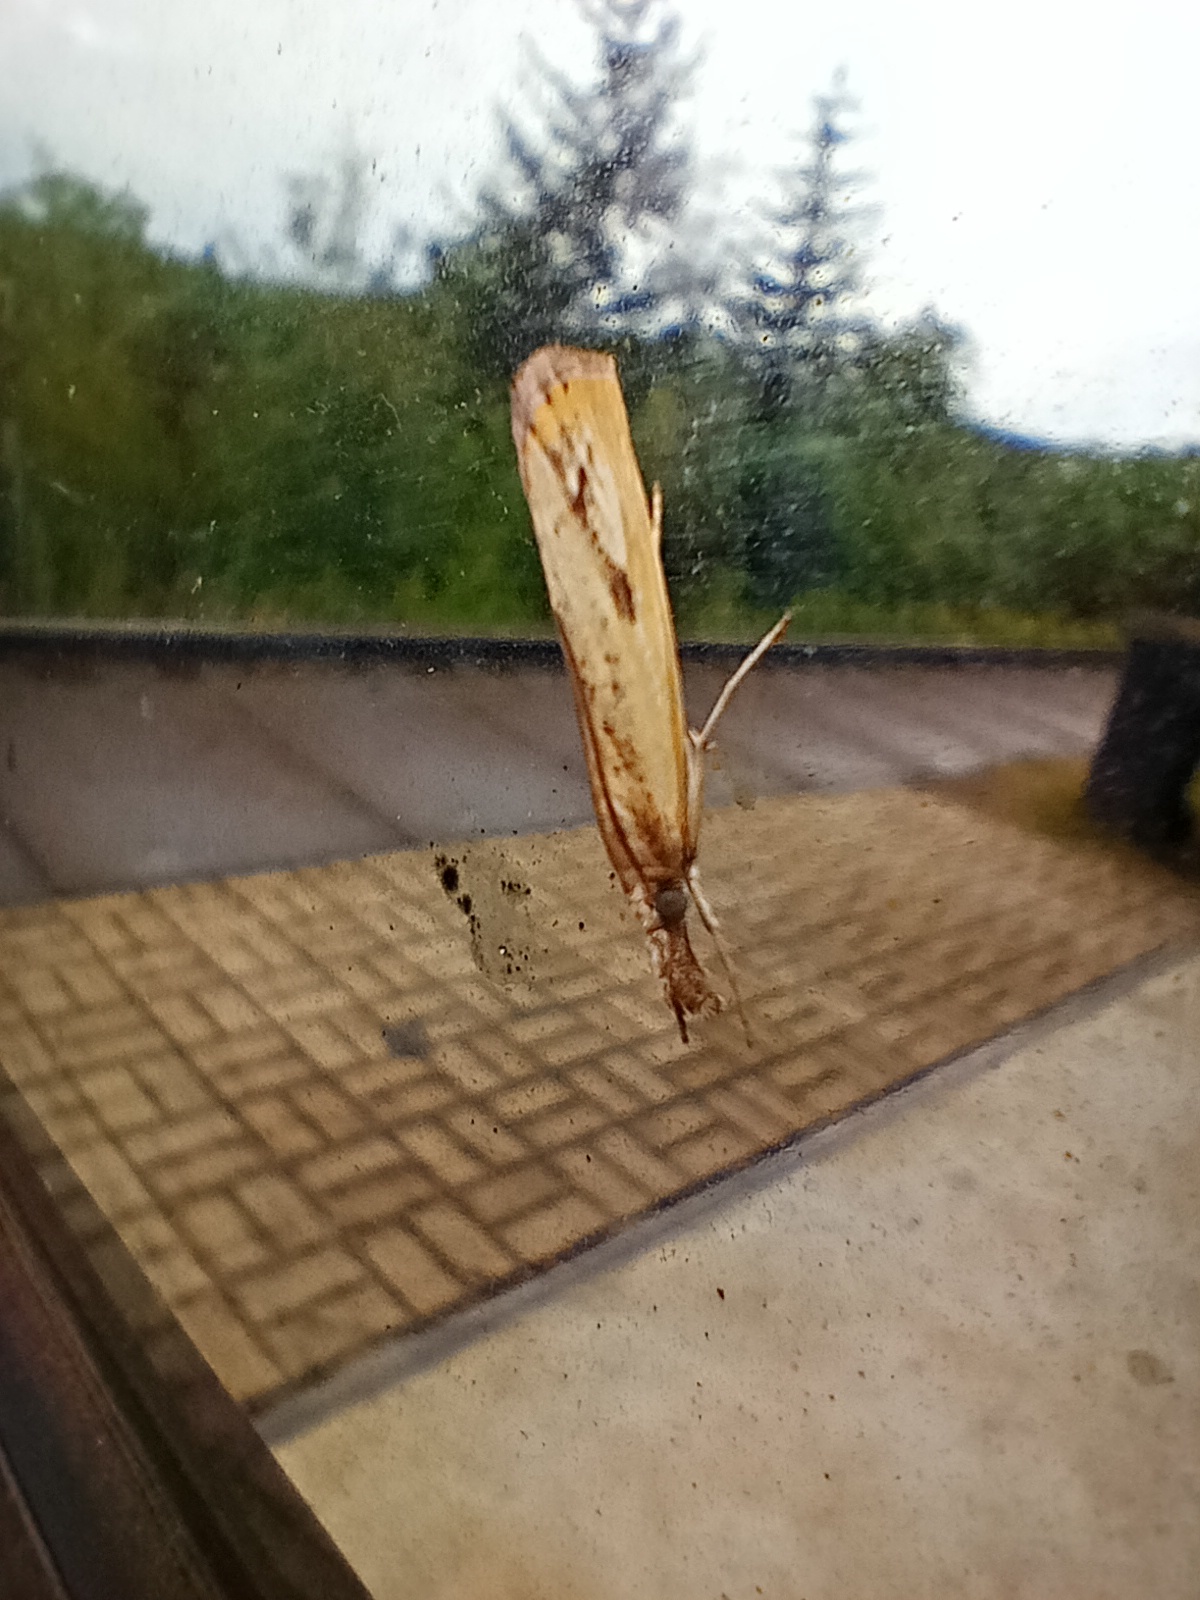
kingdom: Animalia
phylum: Arthropoda
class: Insecta
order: Lepidoptera
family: Crambidae
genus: Agriphila
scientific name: Agriphila inquinatella
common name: Barred grass-veneer
